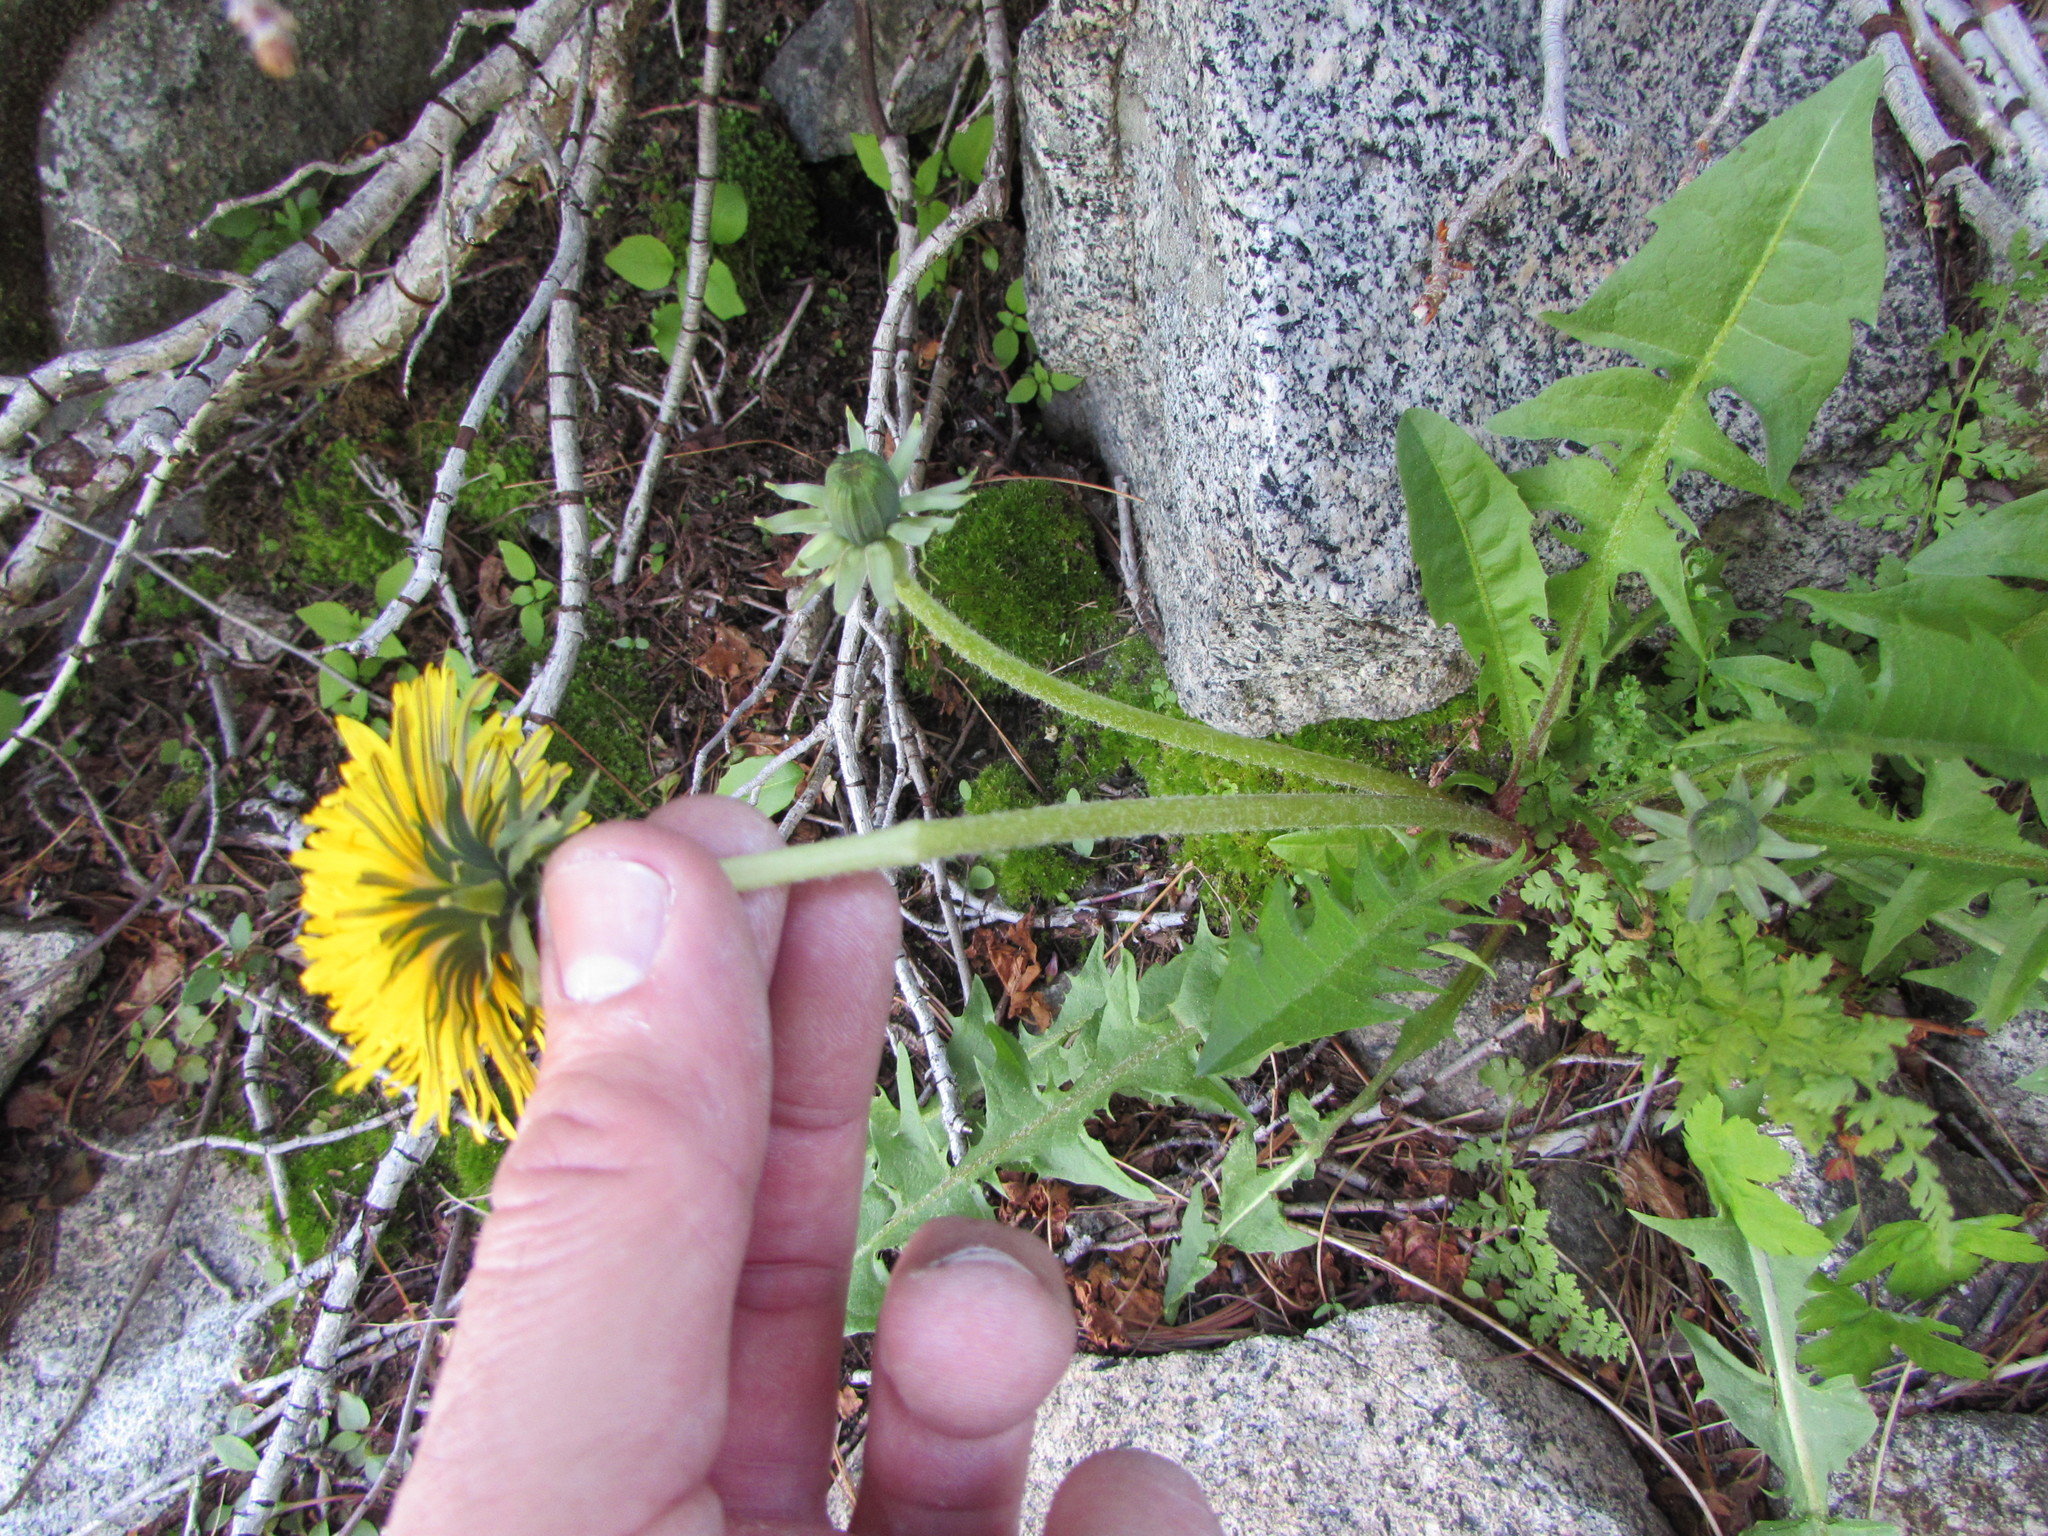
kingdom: Plantae
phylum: Tracheophyta
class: Magnoliopsida
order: Asterales
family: Asteraceae
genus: Taraxacum
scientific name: Taraxacum officinale
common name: Common dandelion
